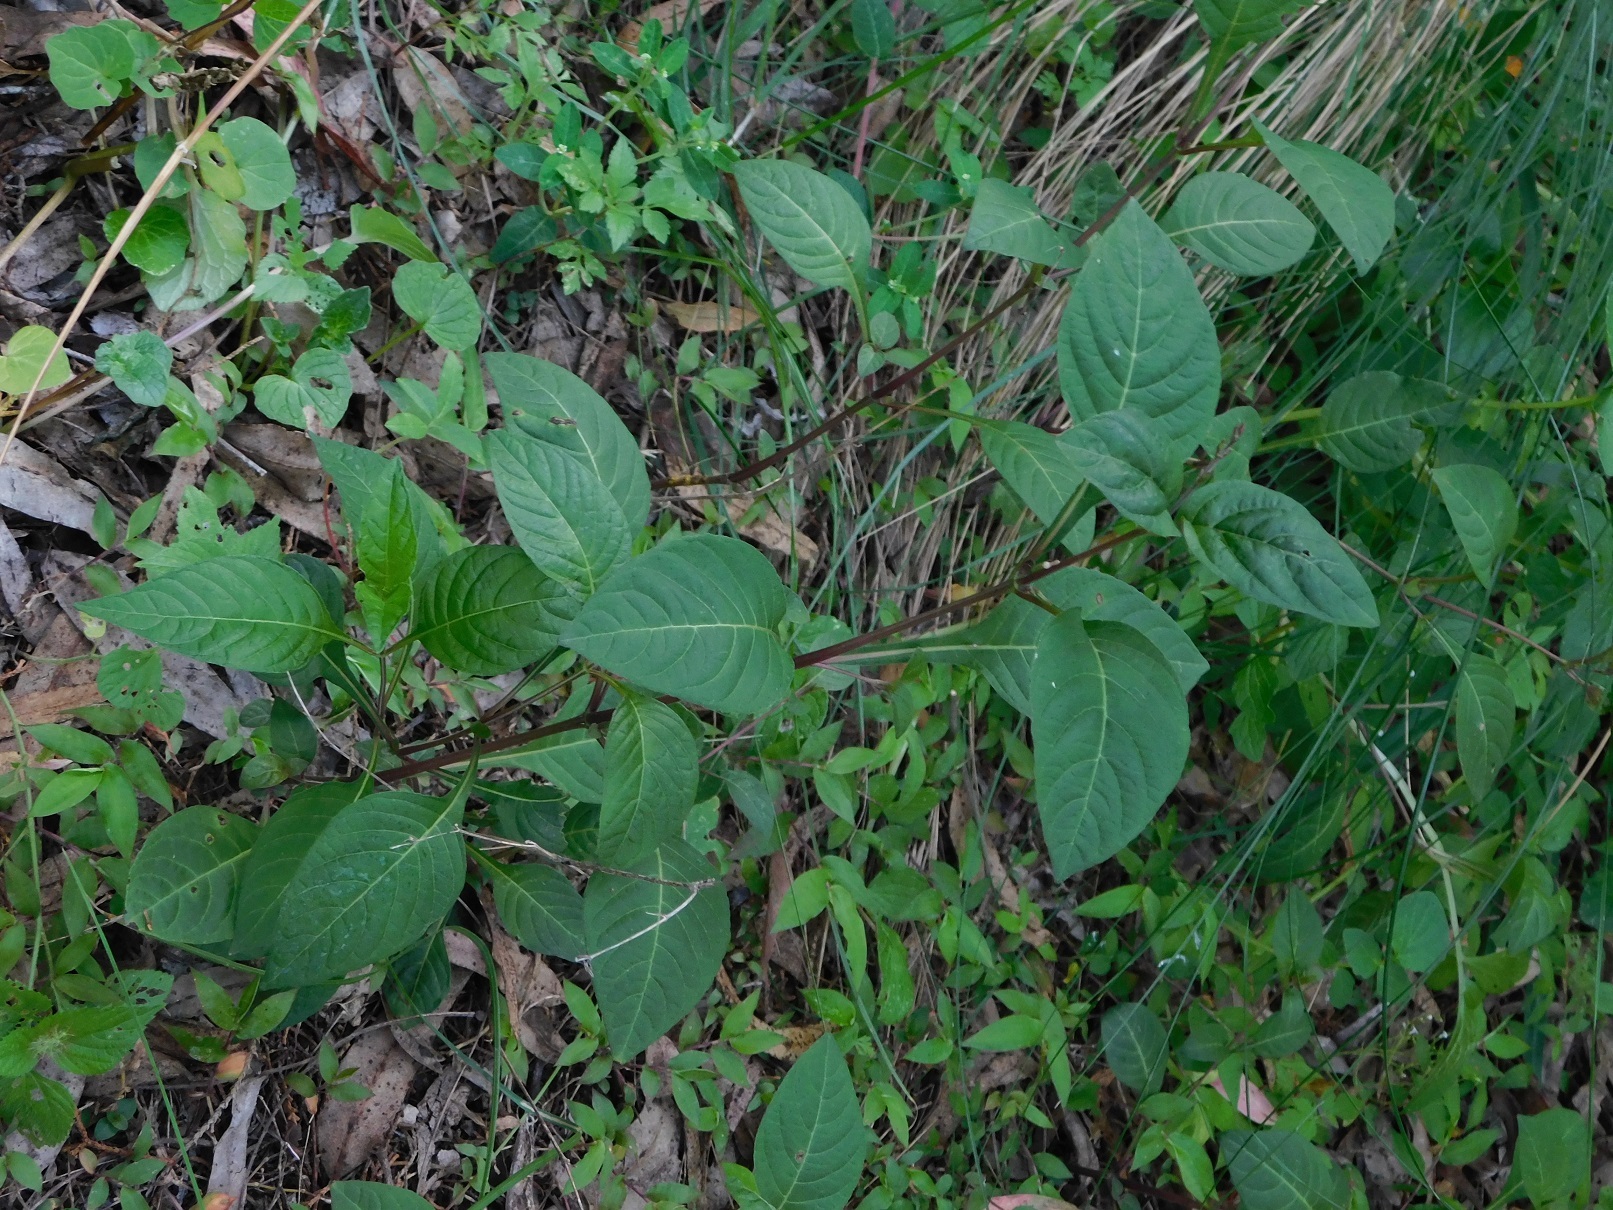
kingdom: Plantae
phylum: Tracheophyta
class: Magnoliopsida
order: Lamiales
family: Acanthaceae
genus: Pseuderanthemum
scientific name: Pseuderanthemum praecox
